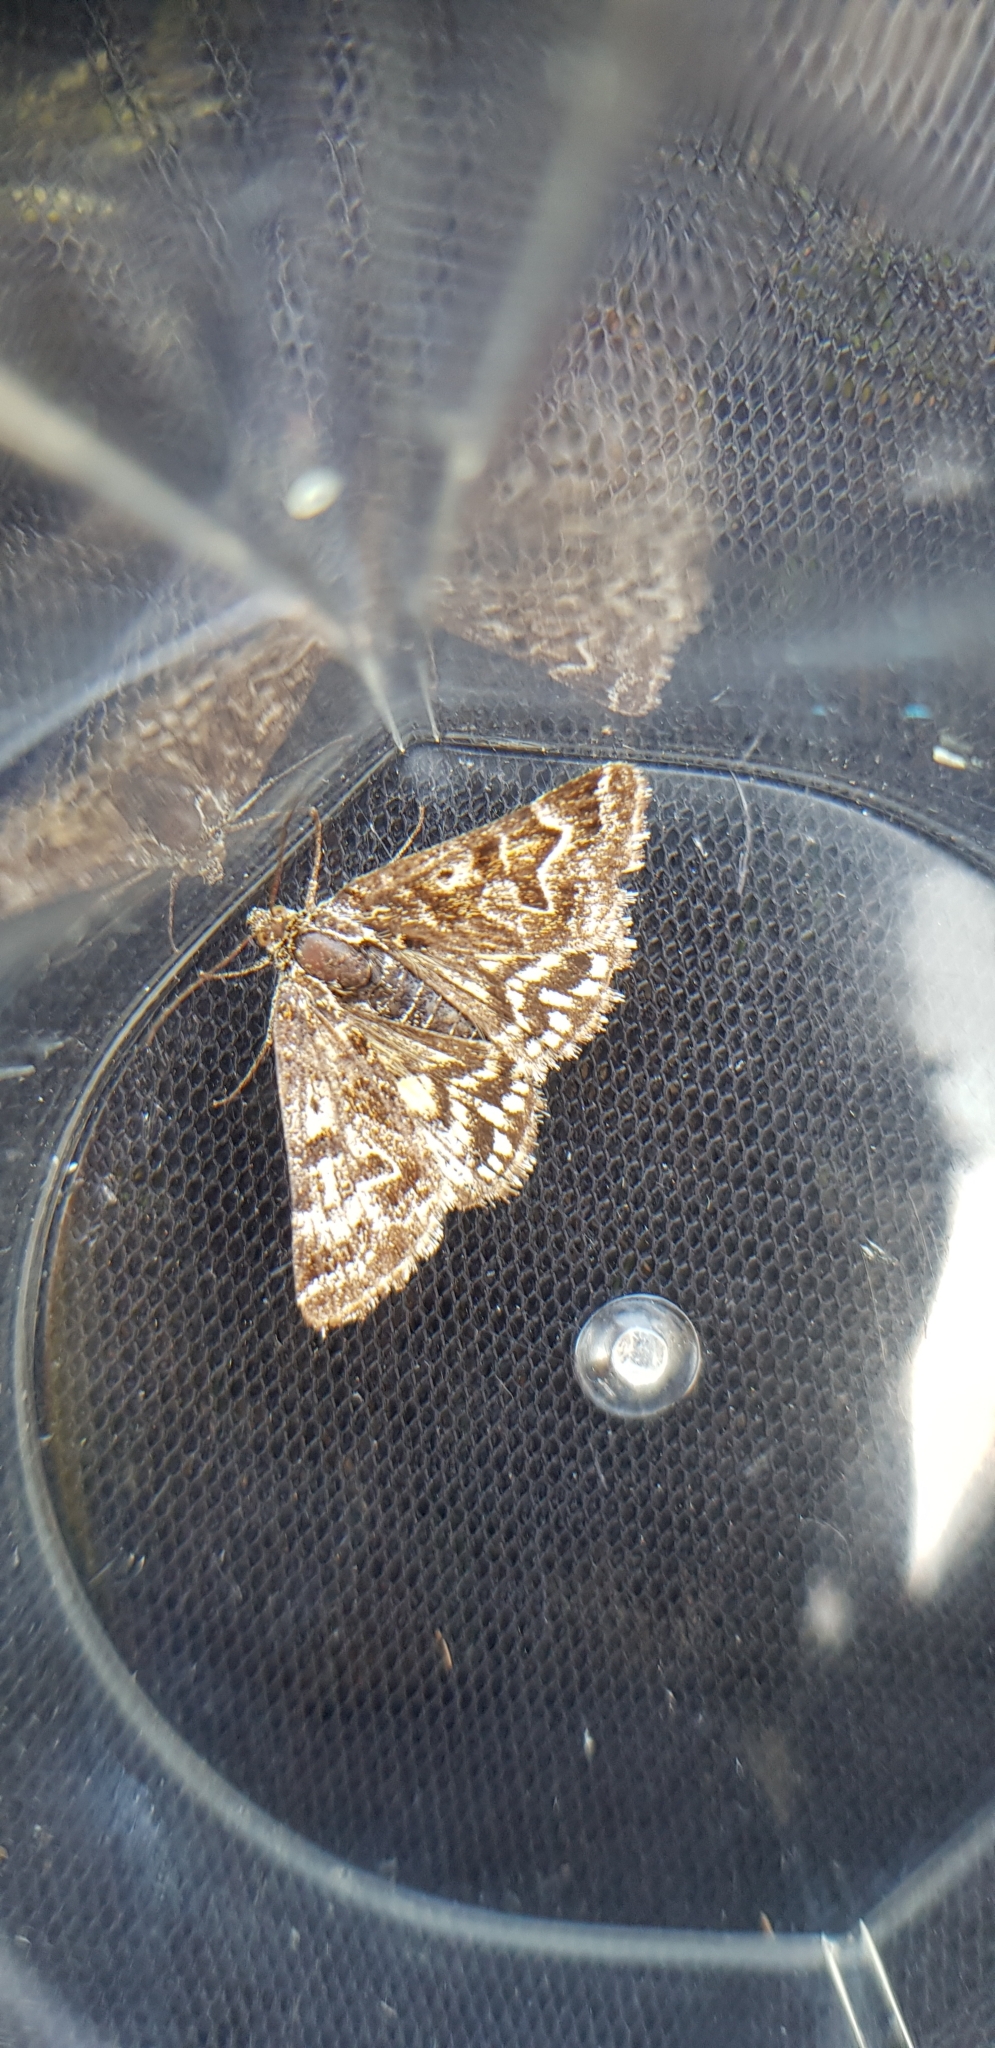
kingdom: Animalia
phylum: Arthropoda
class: Insecta
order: Lepidoptera
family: Erebidae
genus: Callistege
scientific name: Callistege mi
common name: Mother shipton
